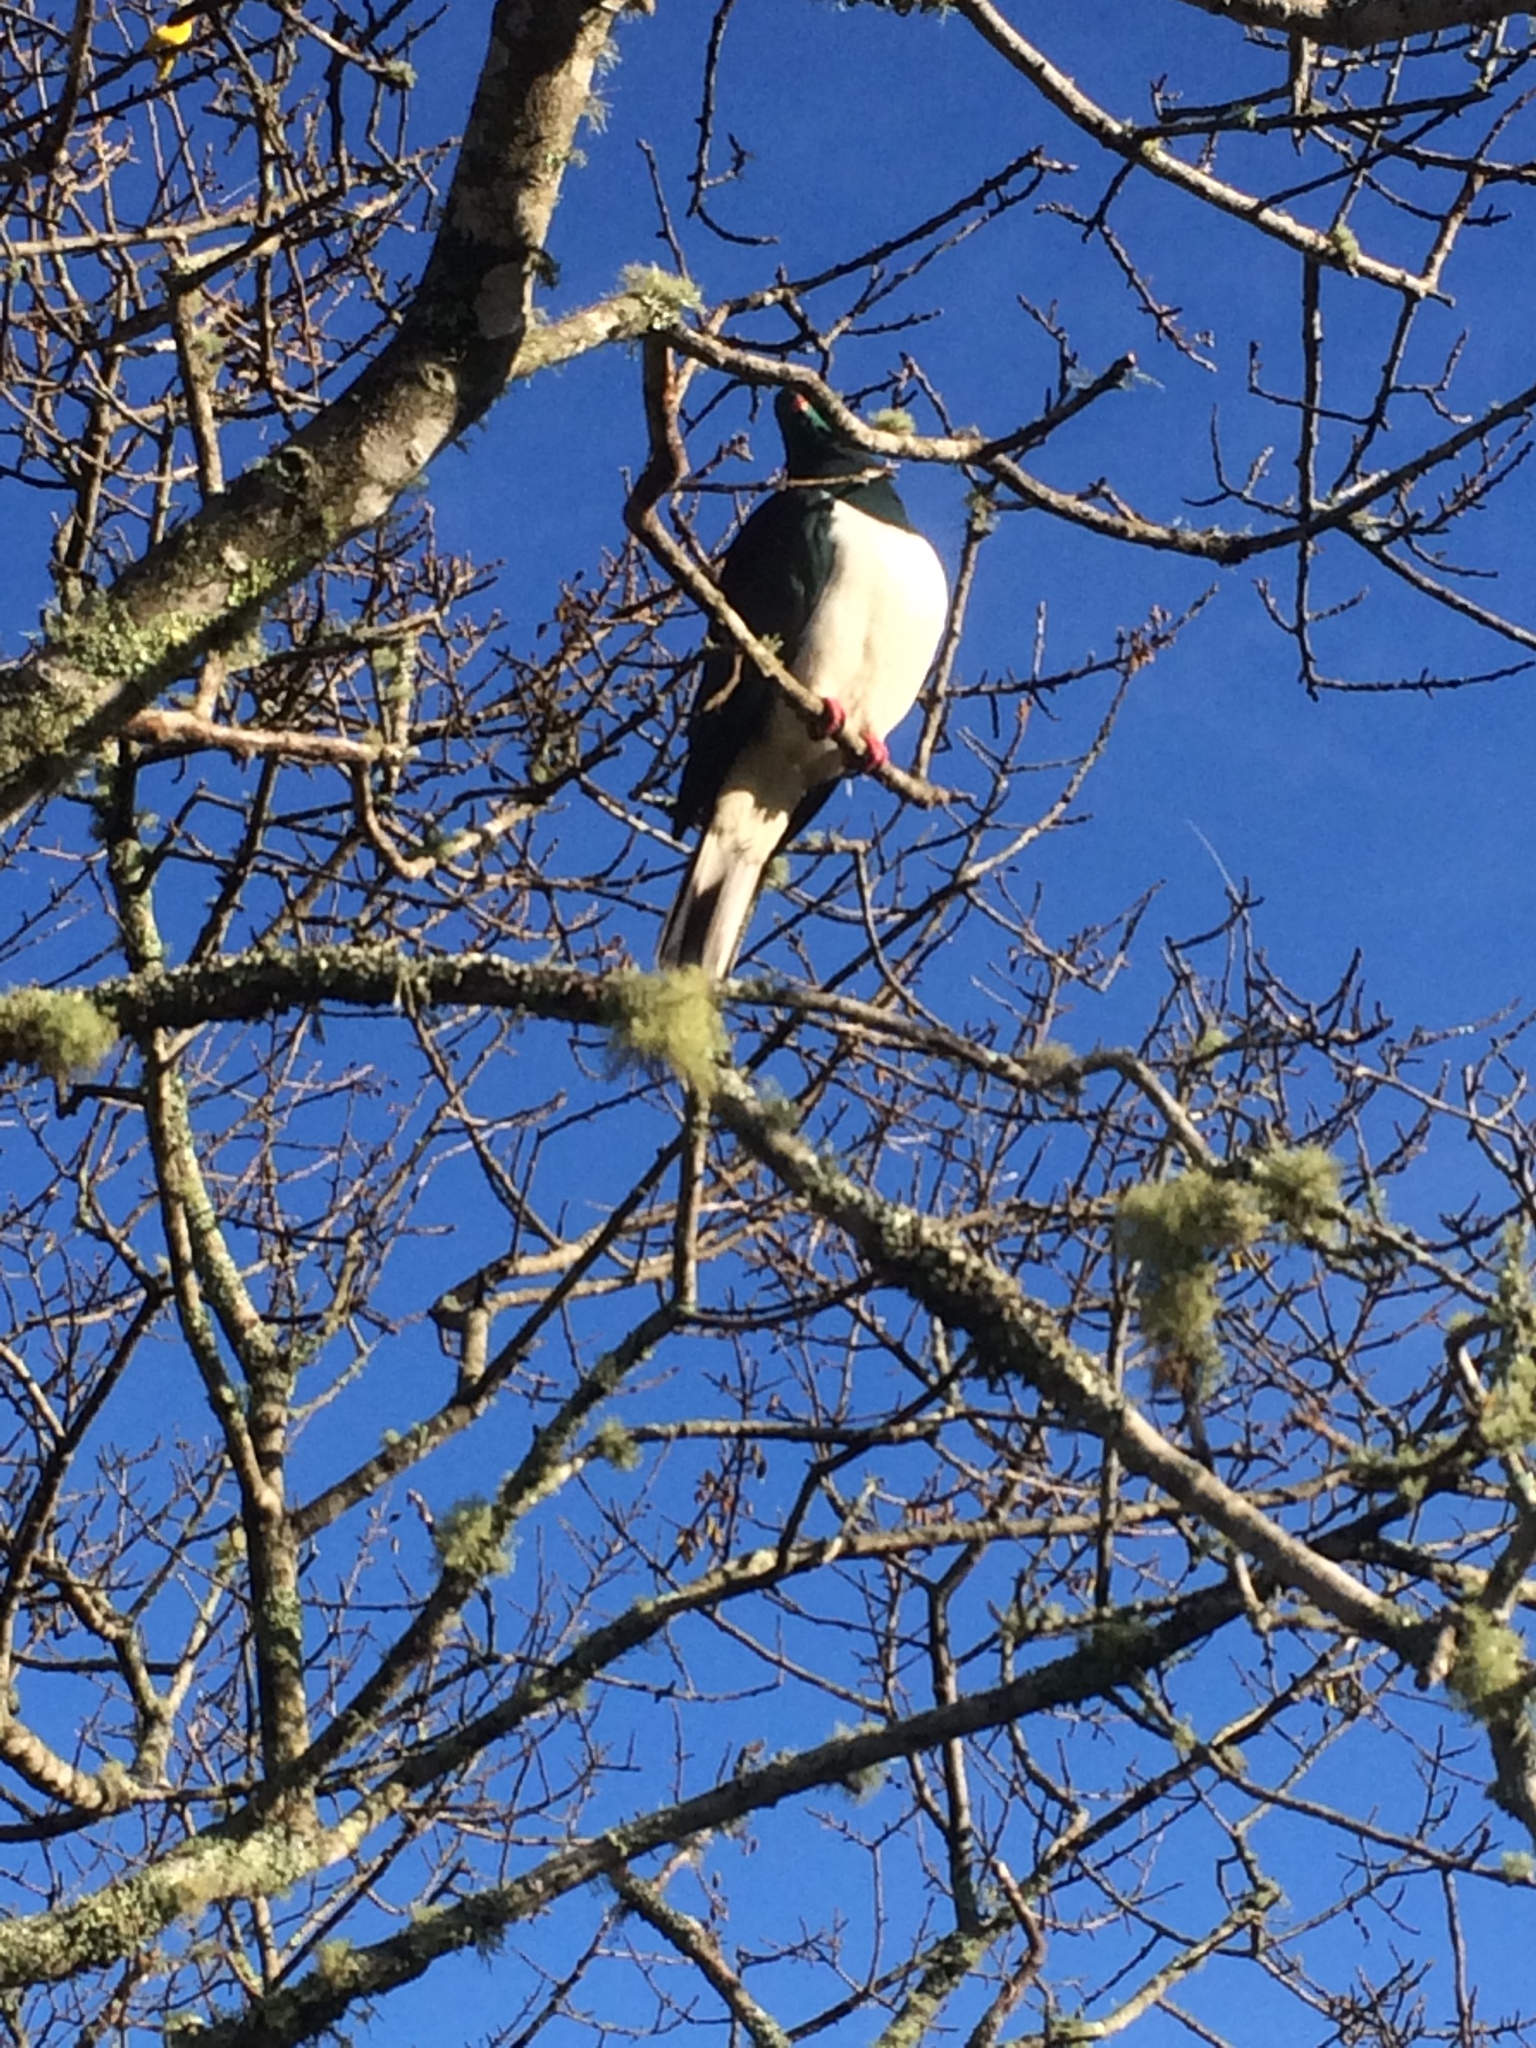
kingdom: Animalia
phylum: Chordata
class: Aves
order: Columbiformes
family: Columbidae
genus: Hemiphaga
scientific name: Hemiphaga novaeseelandiae
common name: New zealand pigeon
